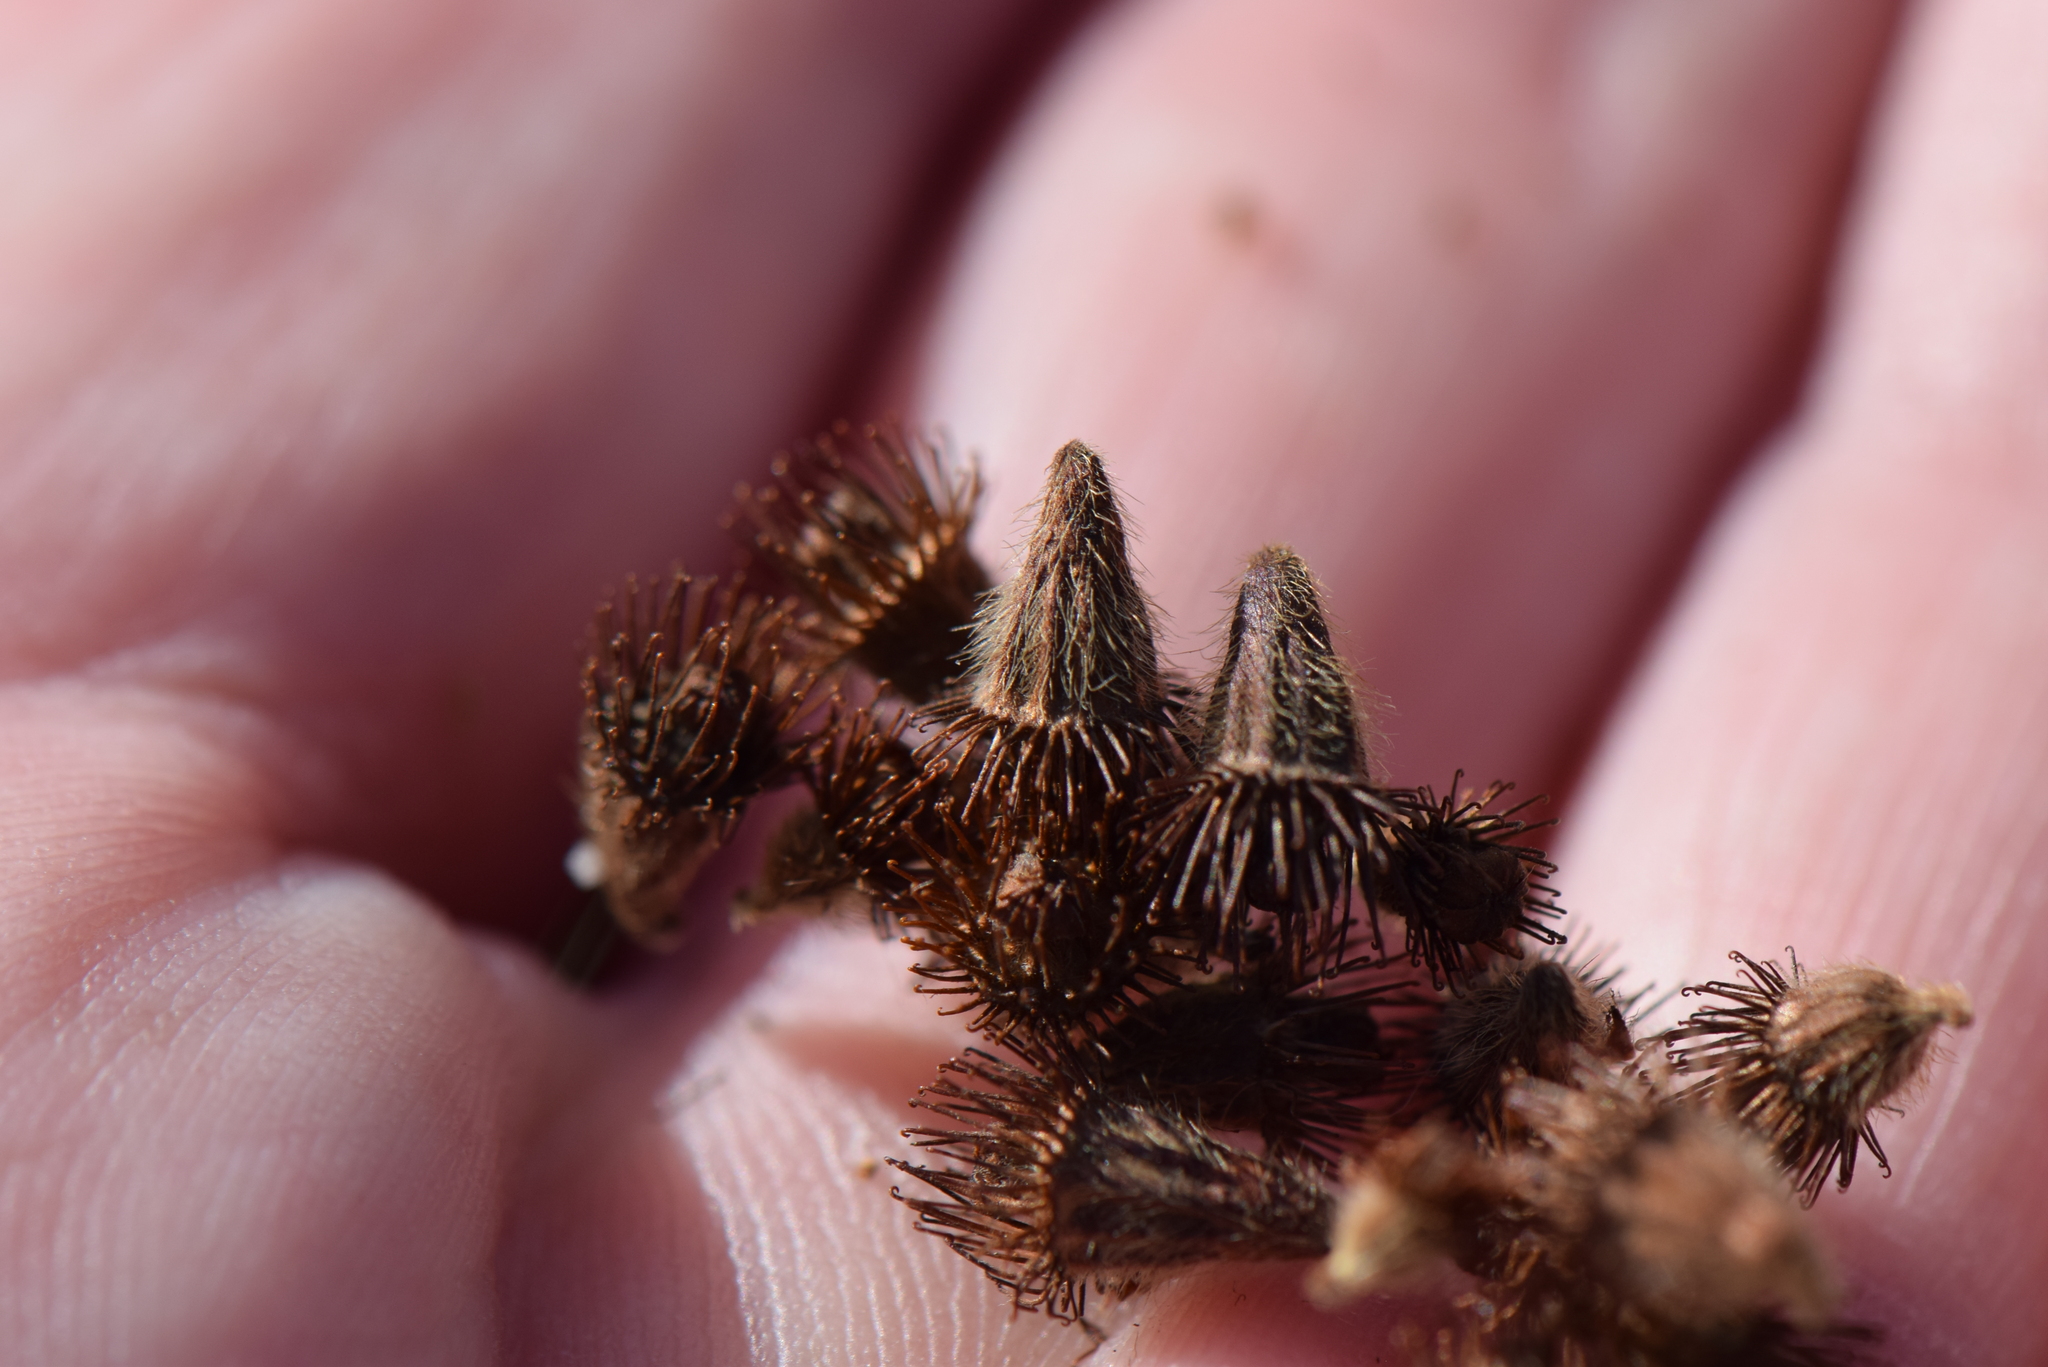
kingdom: Plantae
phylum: Tracheophyta
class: Magnoliopsida
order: Rosales
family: Rosaceae
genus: Agrimonia
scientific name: Agrimonia eupatoria
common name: Agrimony
